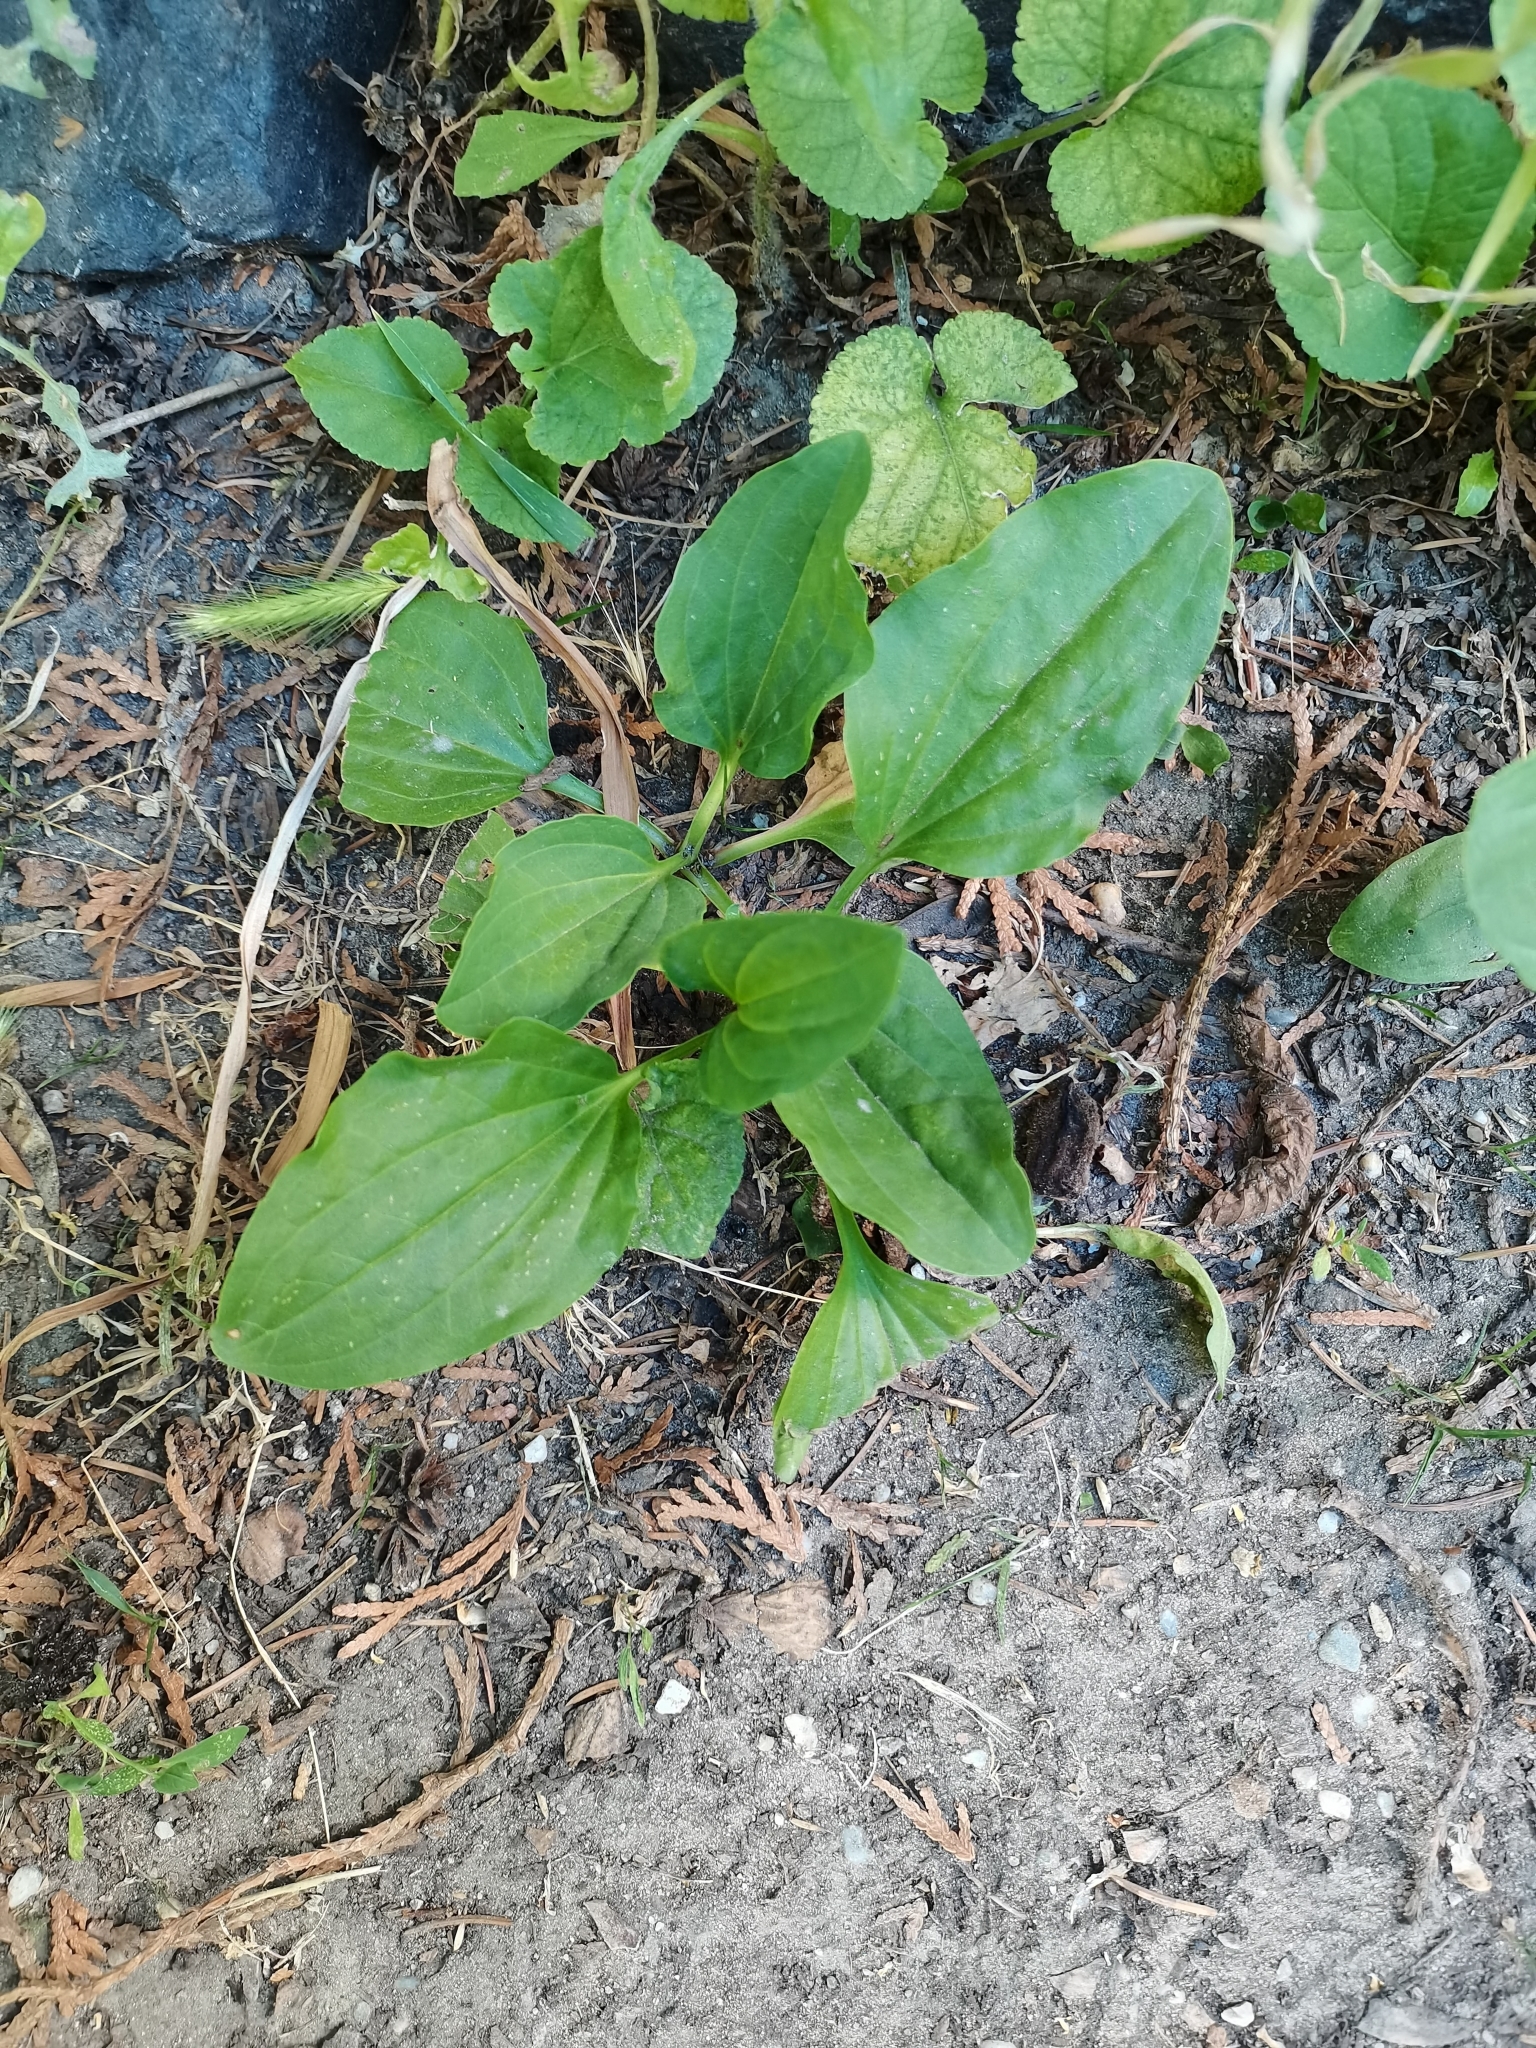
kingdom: Plantae
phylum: Tracheophyta
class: Magnoliopsida
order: Lamiales
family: Plantaginaceae
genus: Plantago
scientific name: Plantago major
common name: Common plantain
